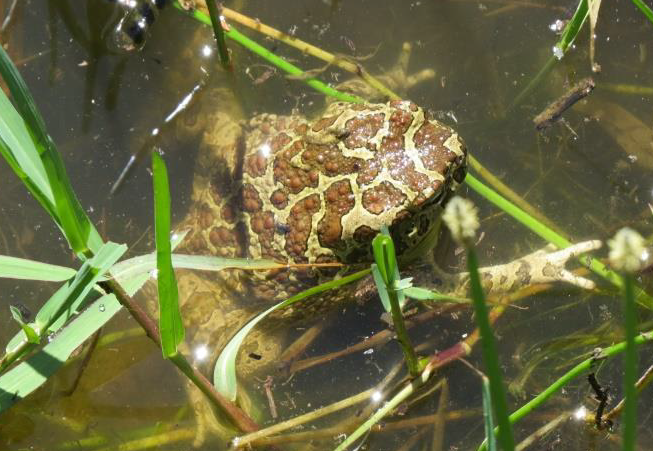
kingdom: Animalia
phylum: Chordata
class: Amphibia
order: Anura
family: Bufonidae
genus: Sclerophrys
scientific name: Sclerophrys mauritanica
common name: Berber toad
